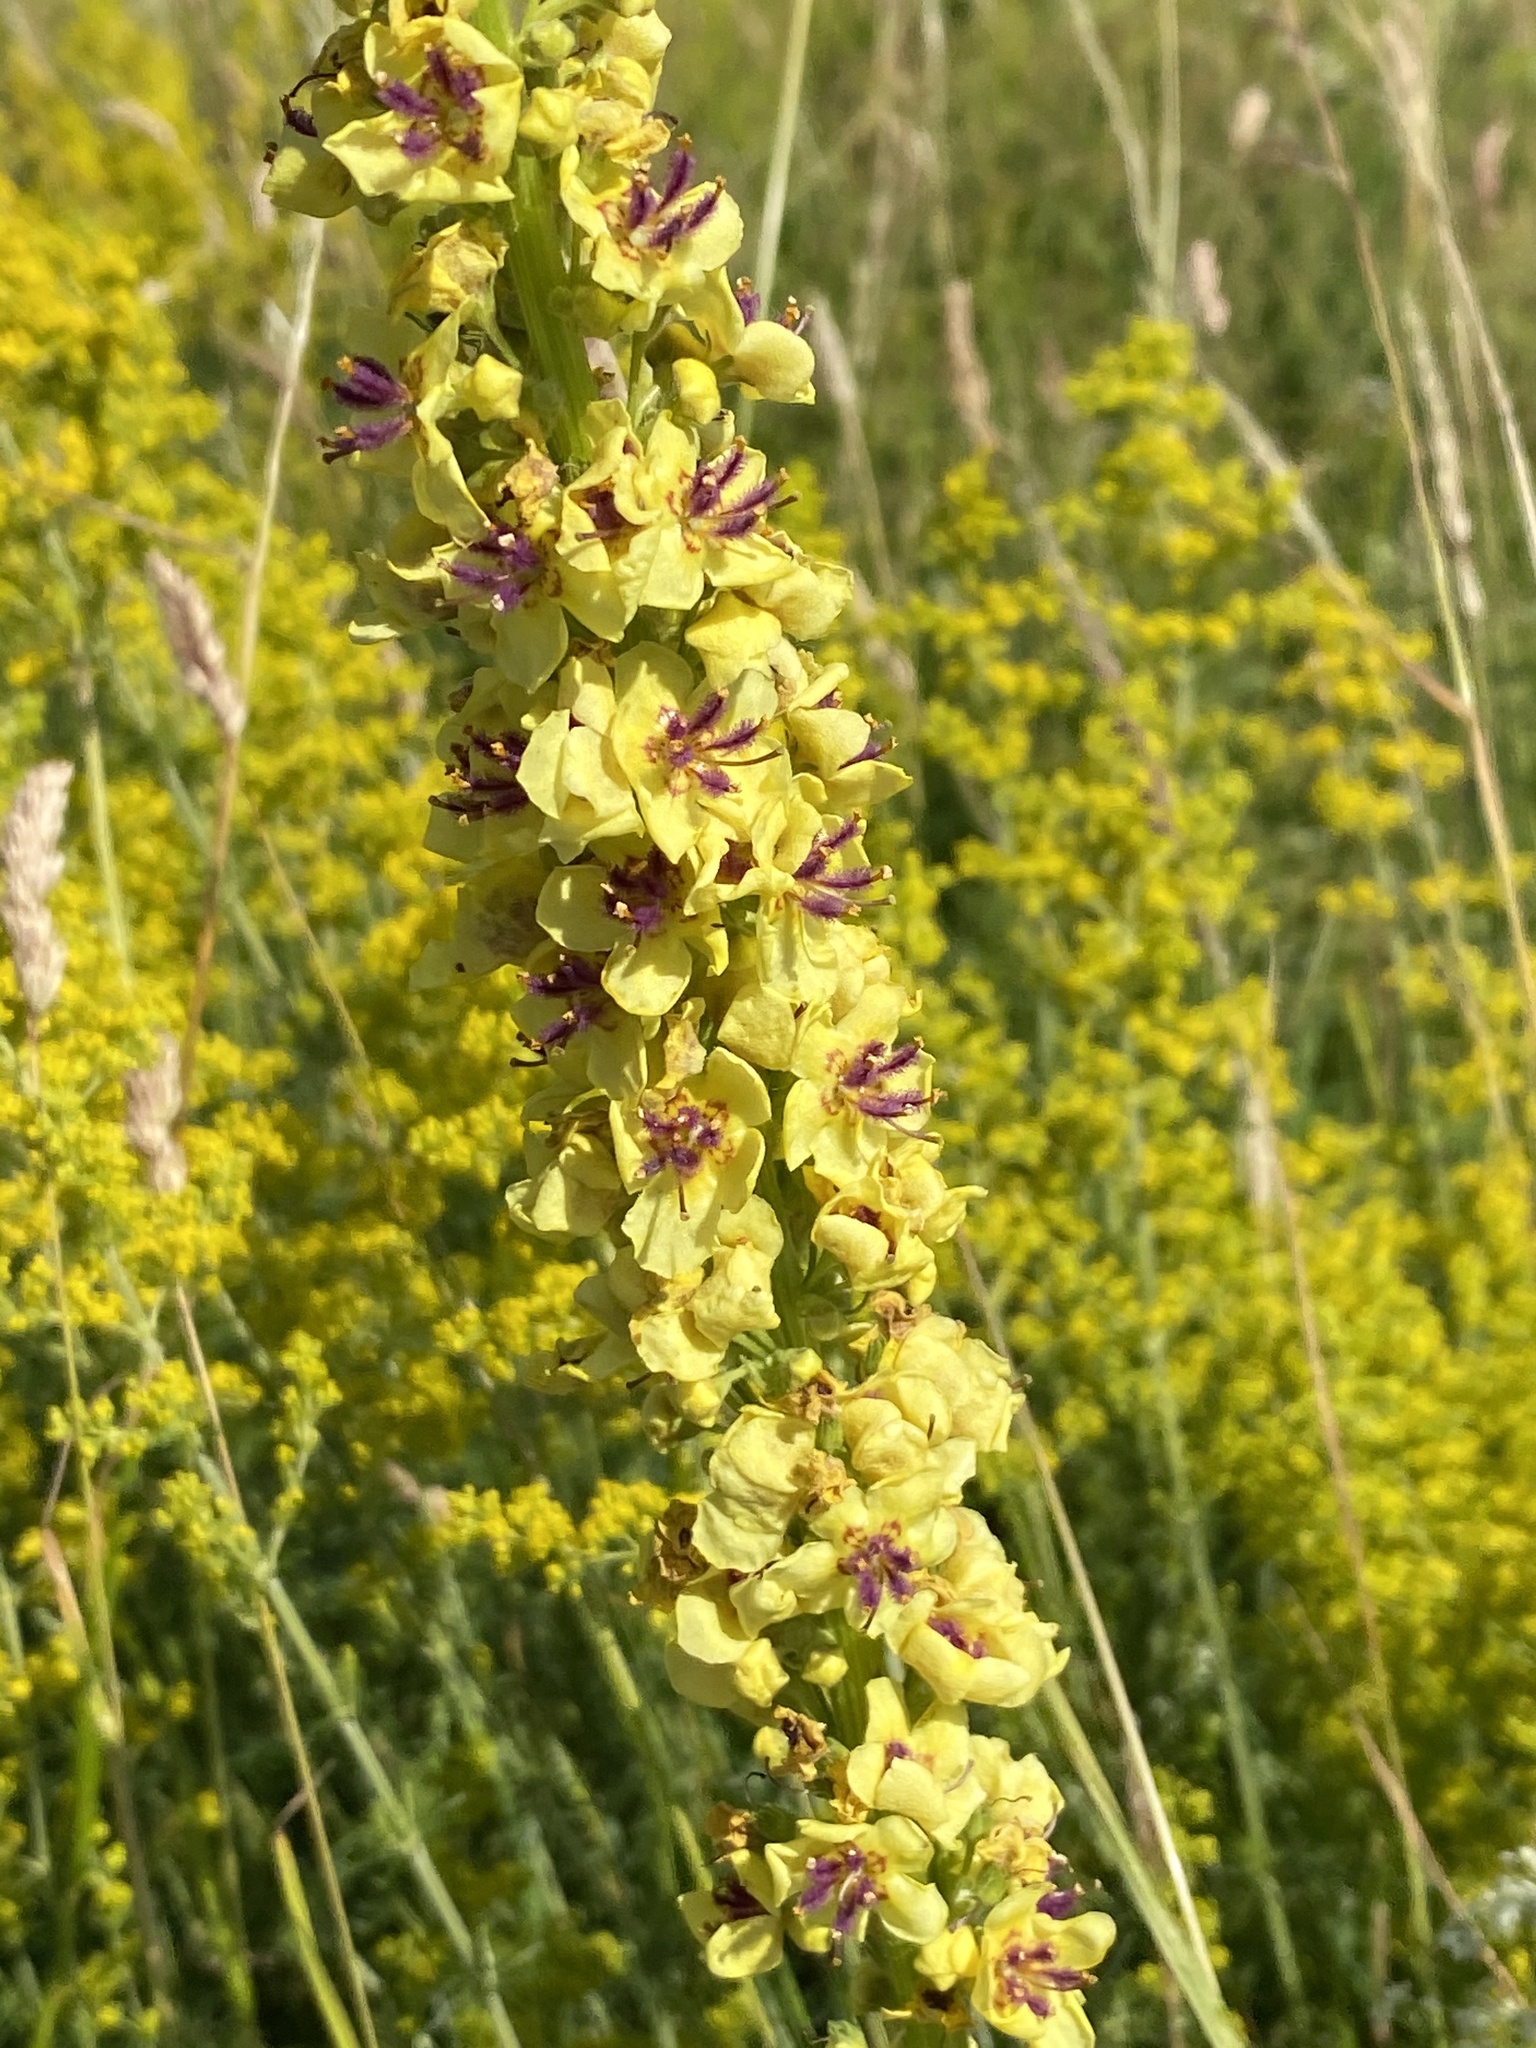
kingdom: Plantae
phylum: Tracheophyta
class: Magnoliopsida
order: Lamiales
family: Scrophulariaceae
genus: Verbascum
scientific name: Verbascum nigrum
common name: Dark mullein
